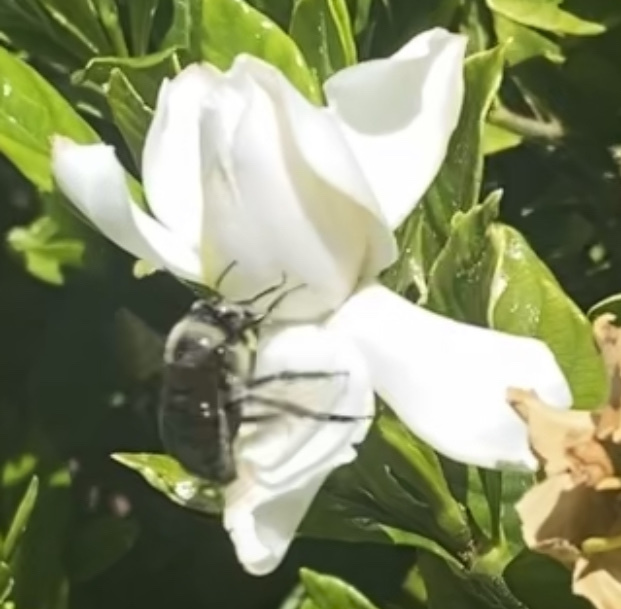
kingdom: Animalia
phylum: Arthropoda
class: Insecta
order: Hymenoptera
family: Apidae
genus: Xylocopa
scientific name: Xylocopa tabaniformis
